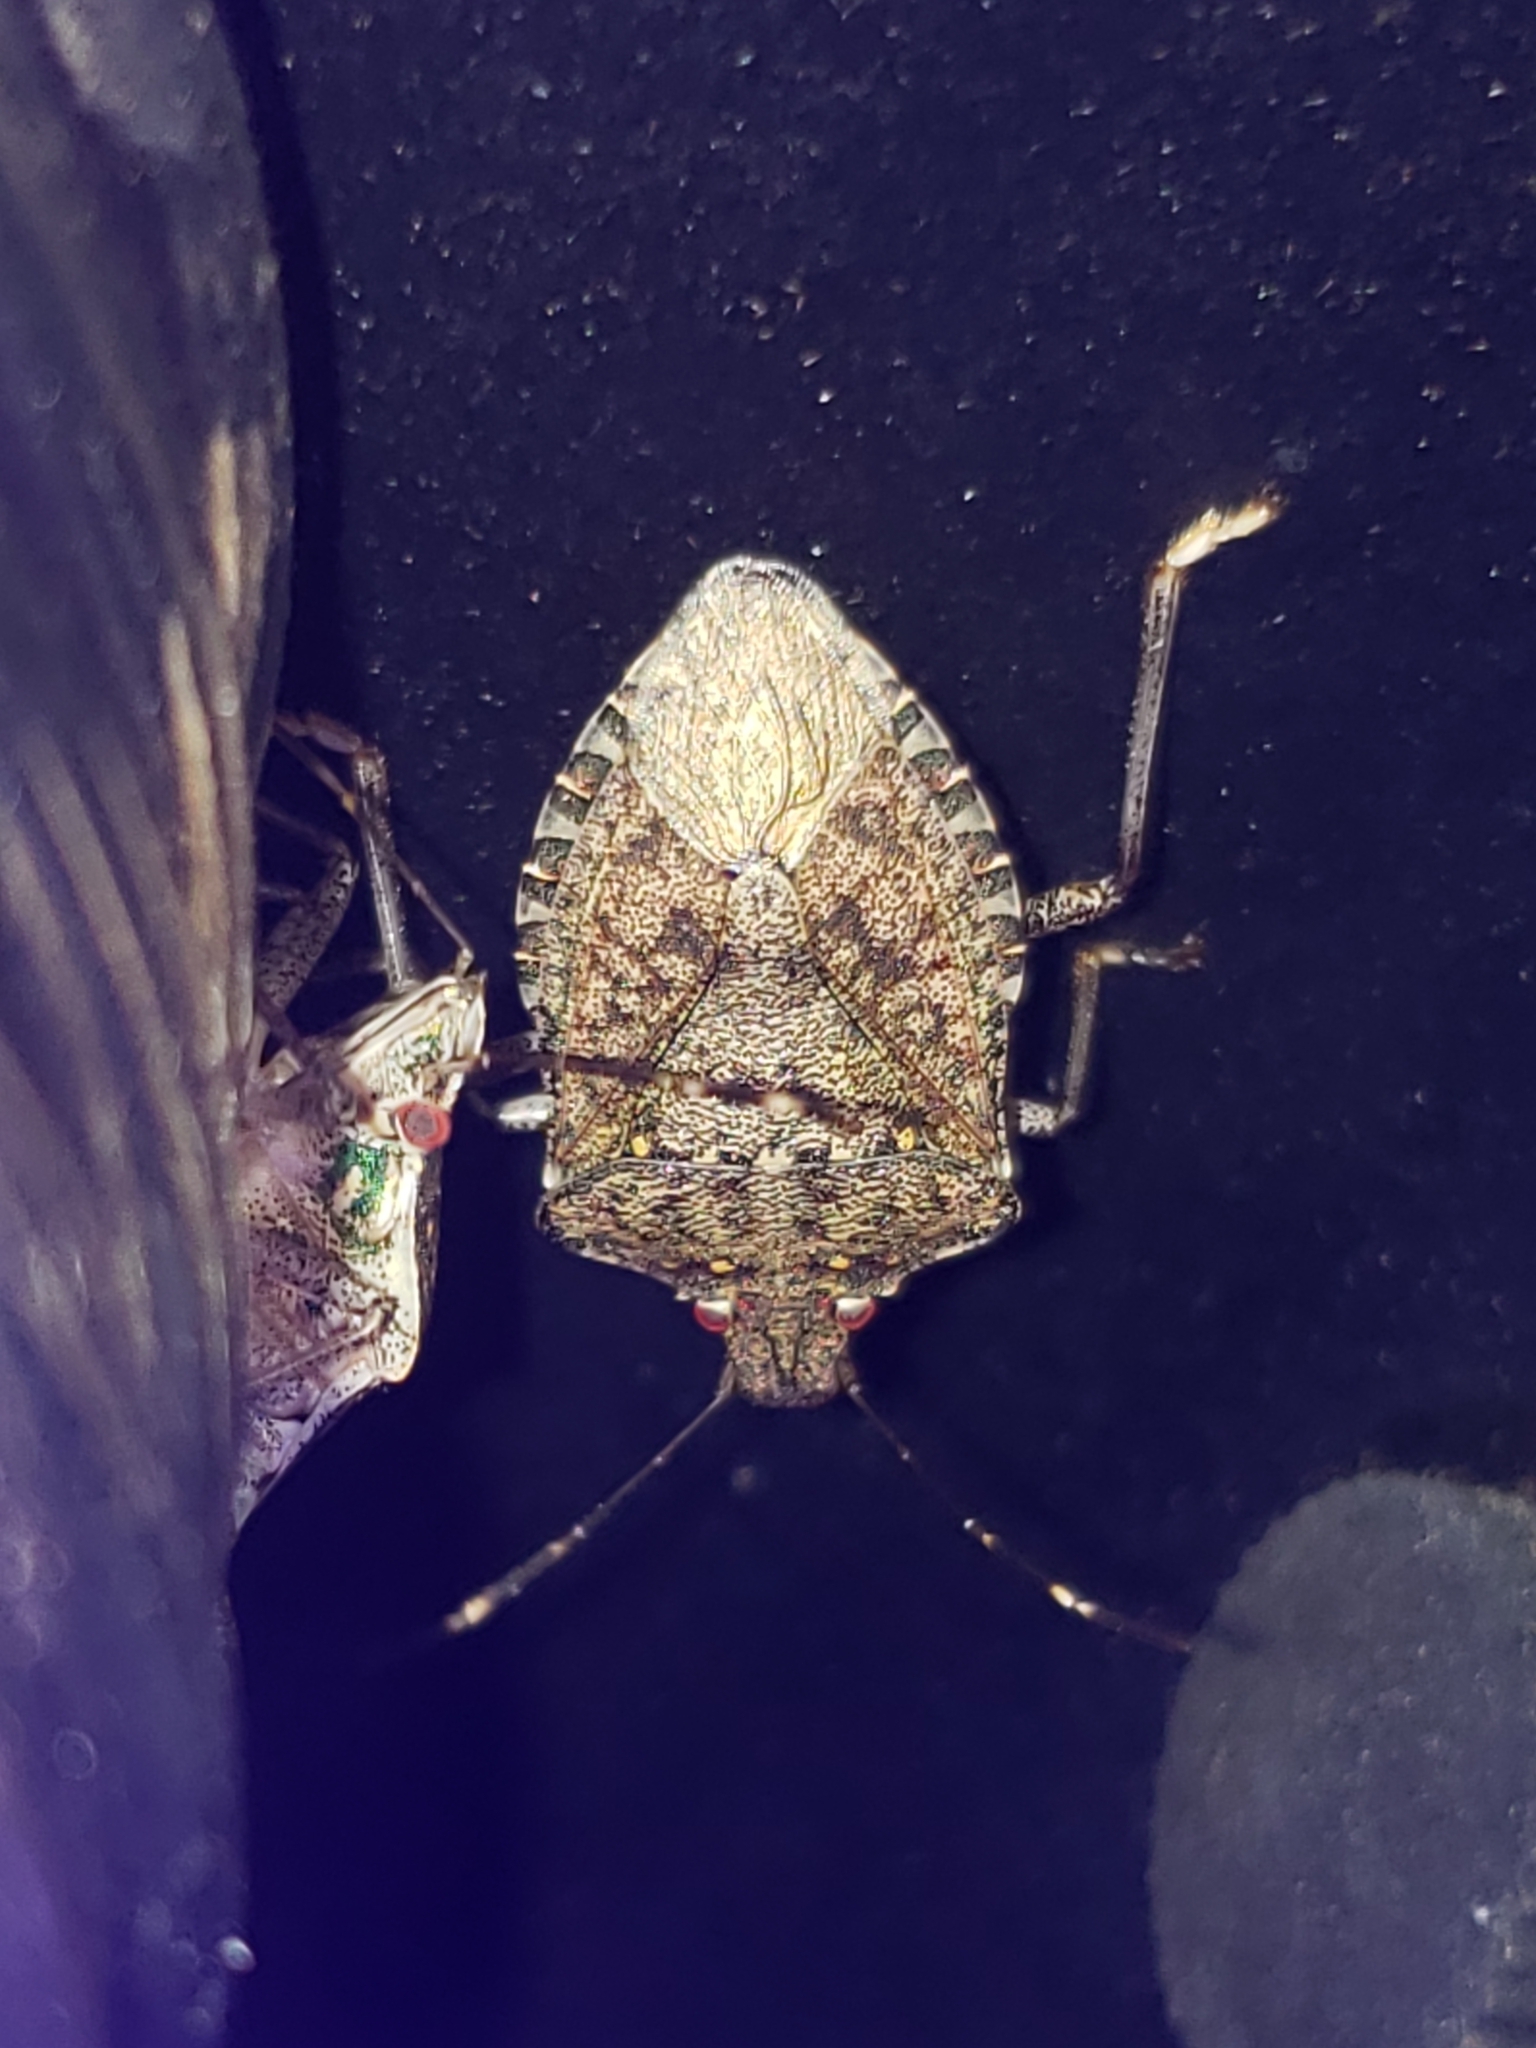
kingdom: Animalia
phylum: Arthropoda
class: Insecta
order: Hemiptera
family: Pentatomidae
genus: Halyomorpha
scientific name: Halyomorpha halys
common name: Brown marmorated stink bug
